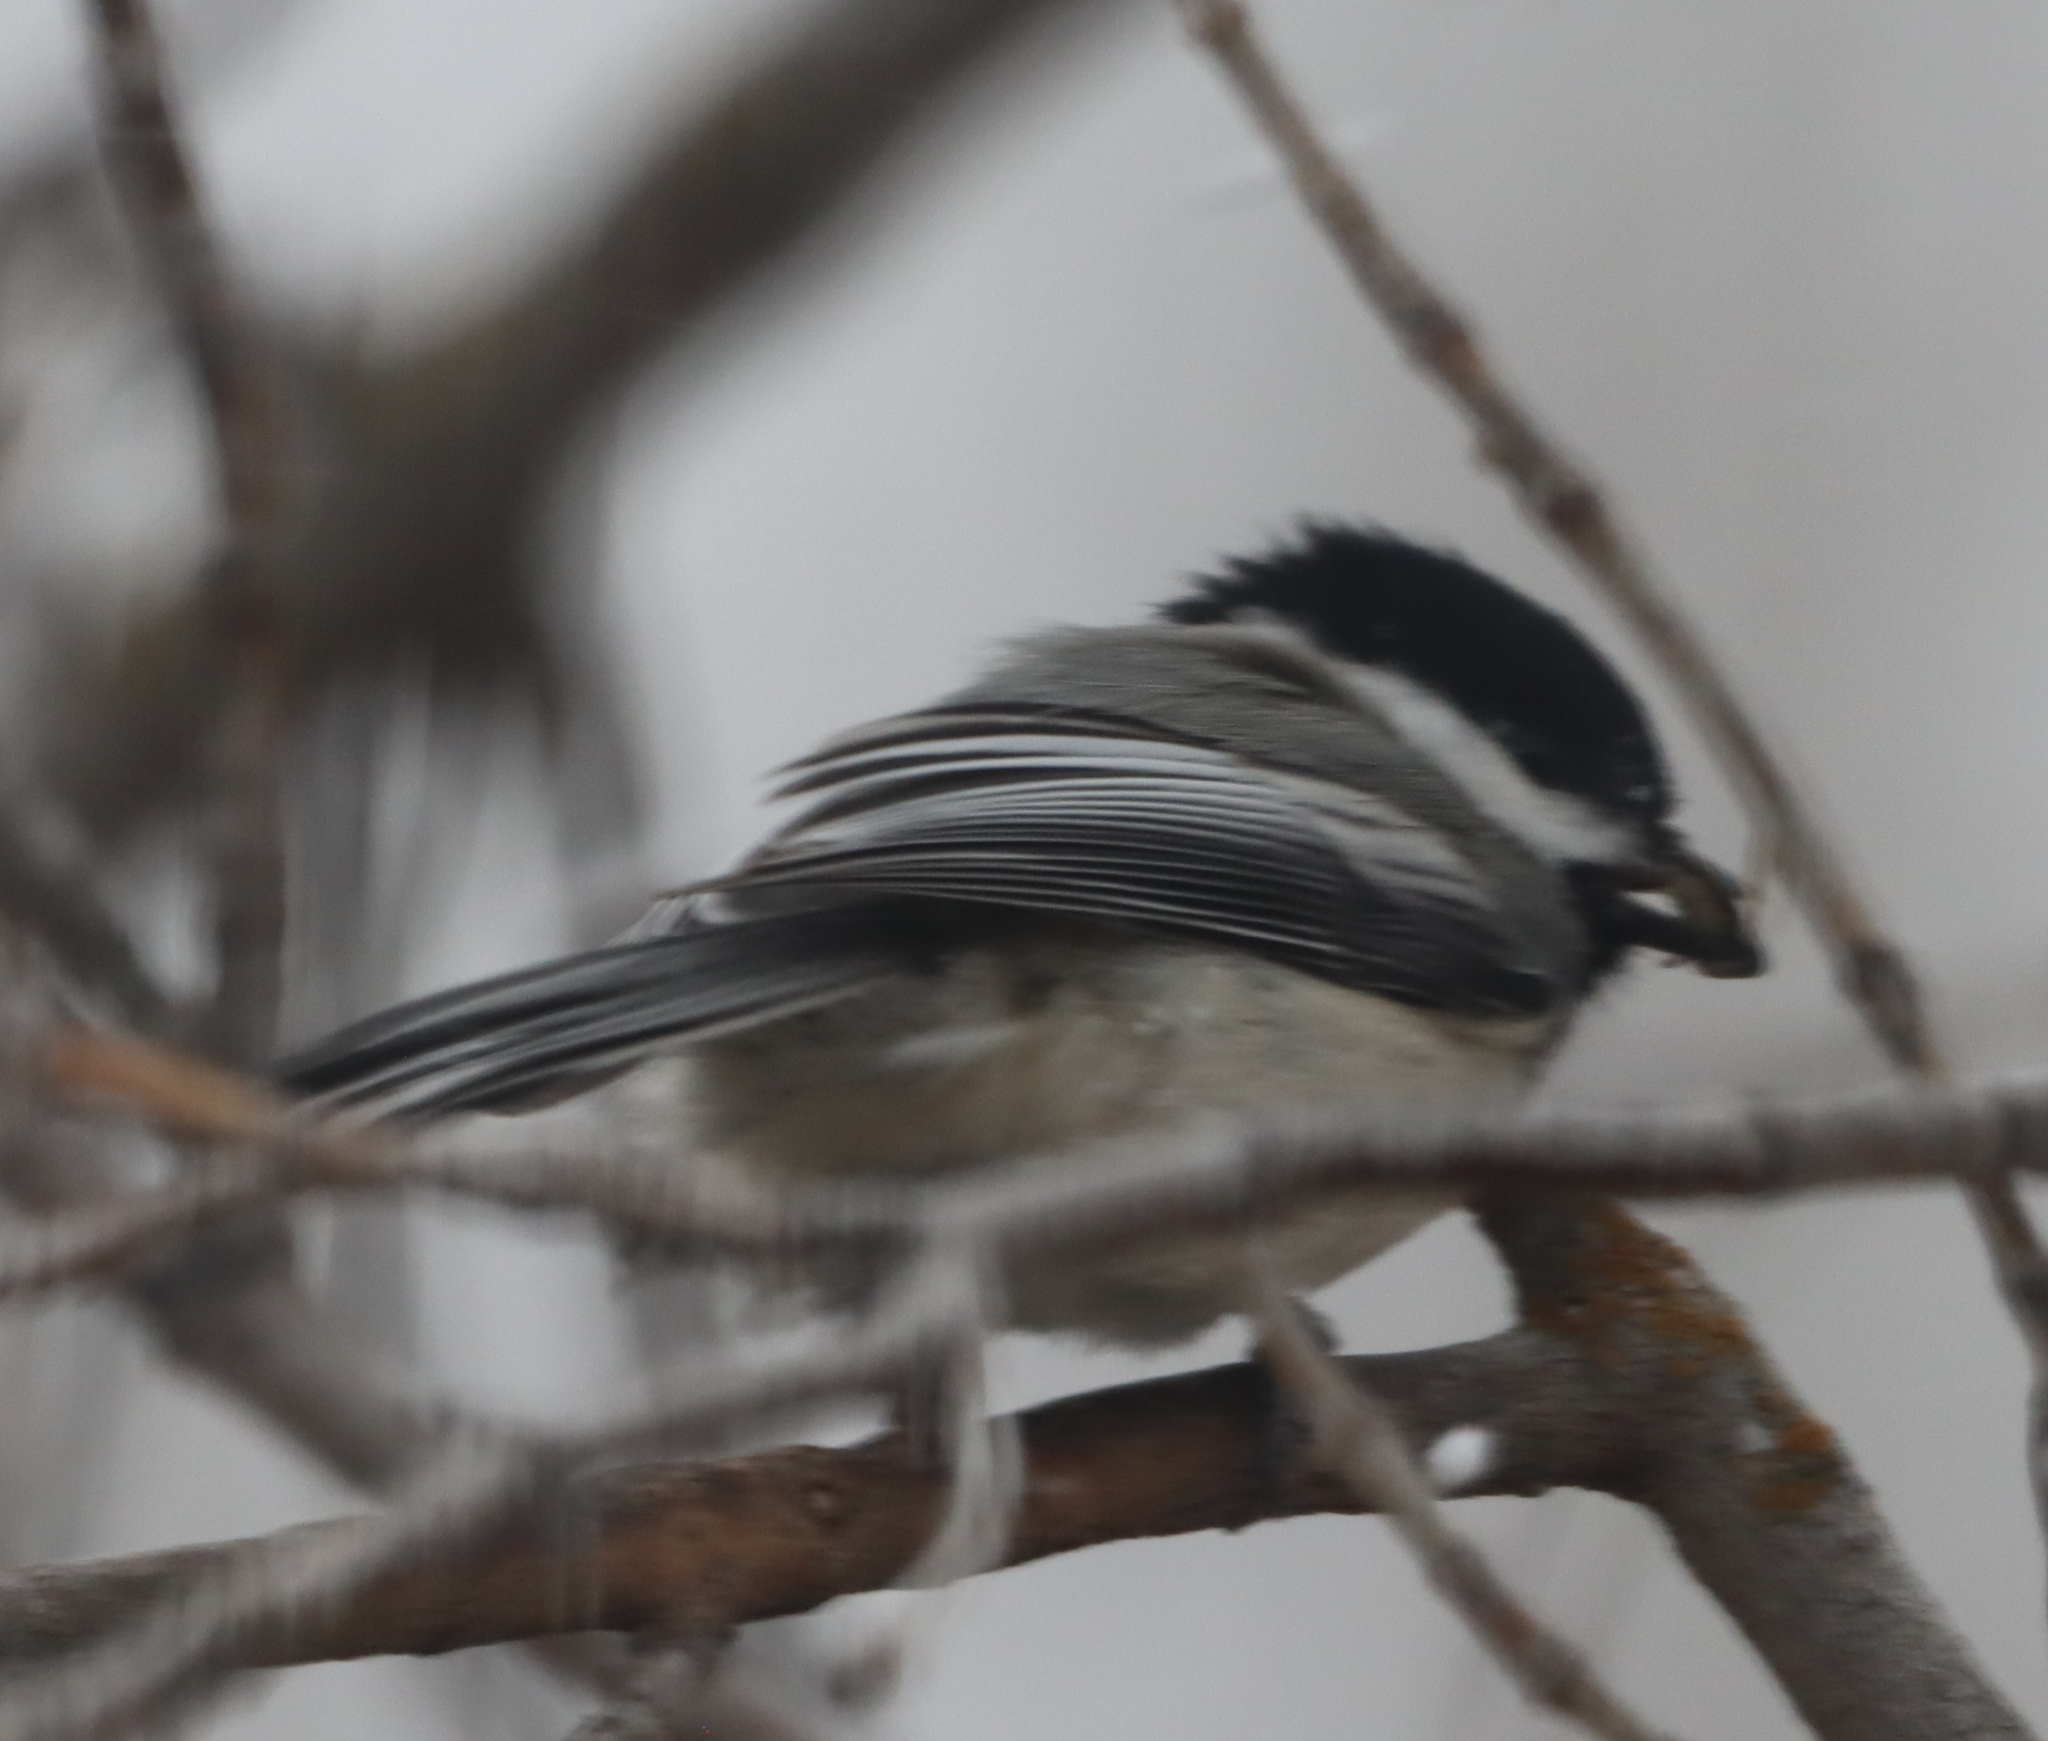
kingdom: Animalia
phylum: Chordata
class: Aves
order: Passeriformes
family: Paridae
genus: Poecile
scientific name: Poecile atricapillus
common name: Black-capped chickadee
